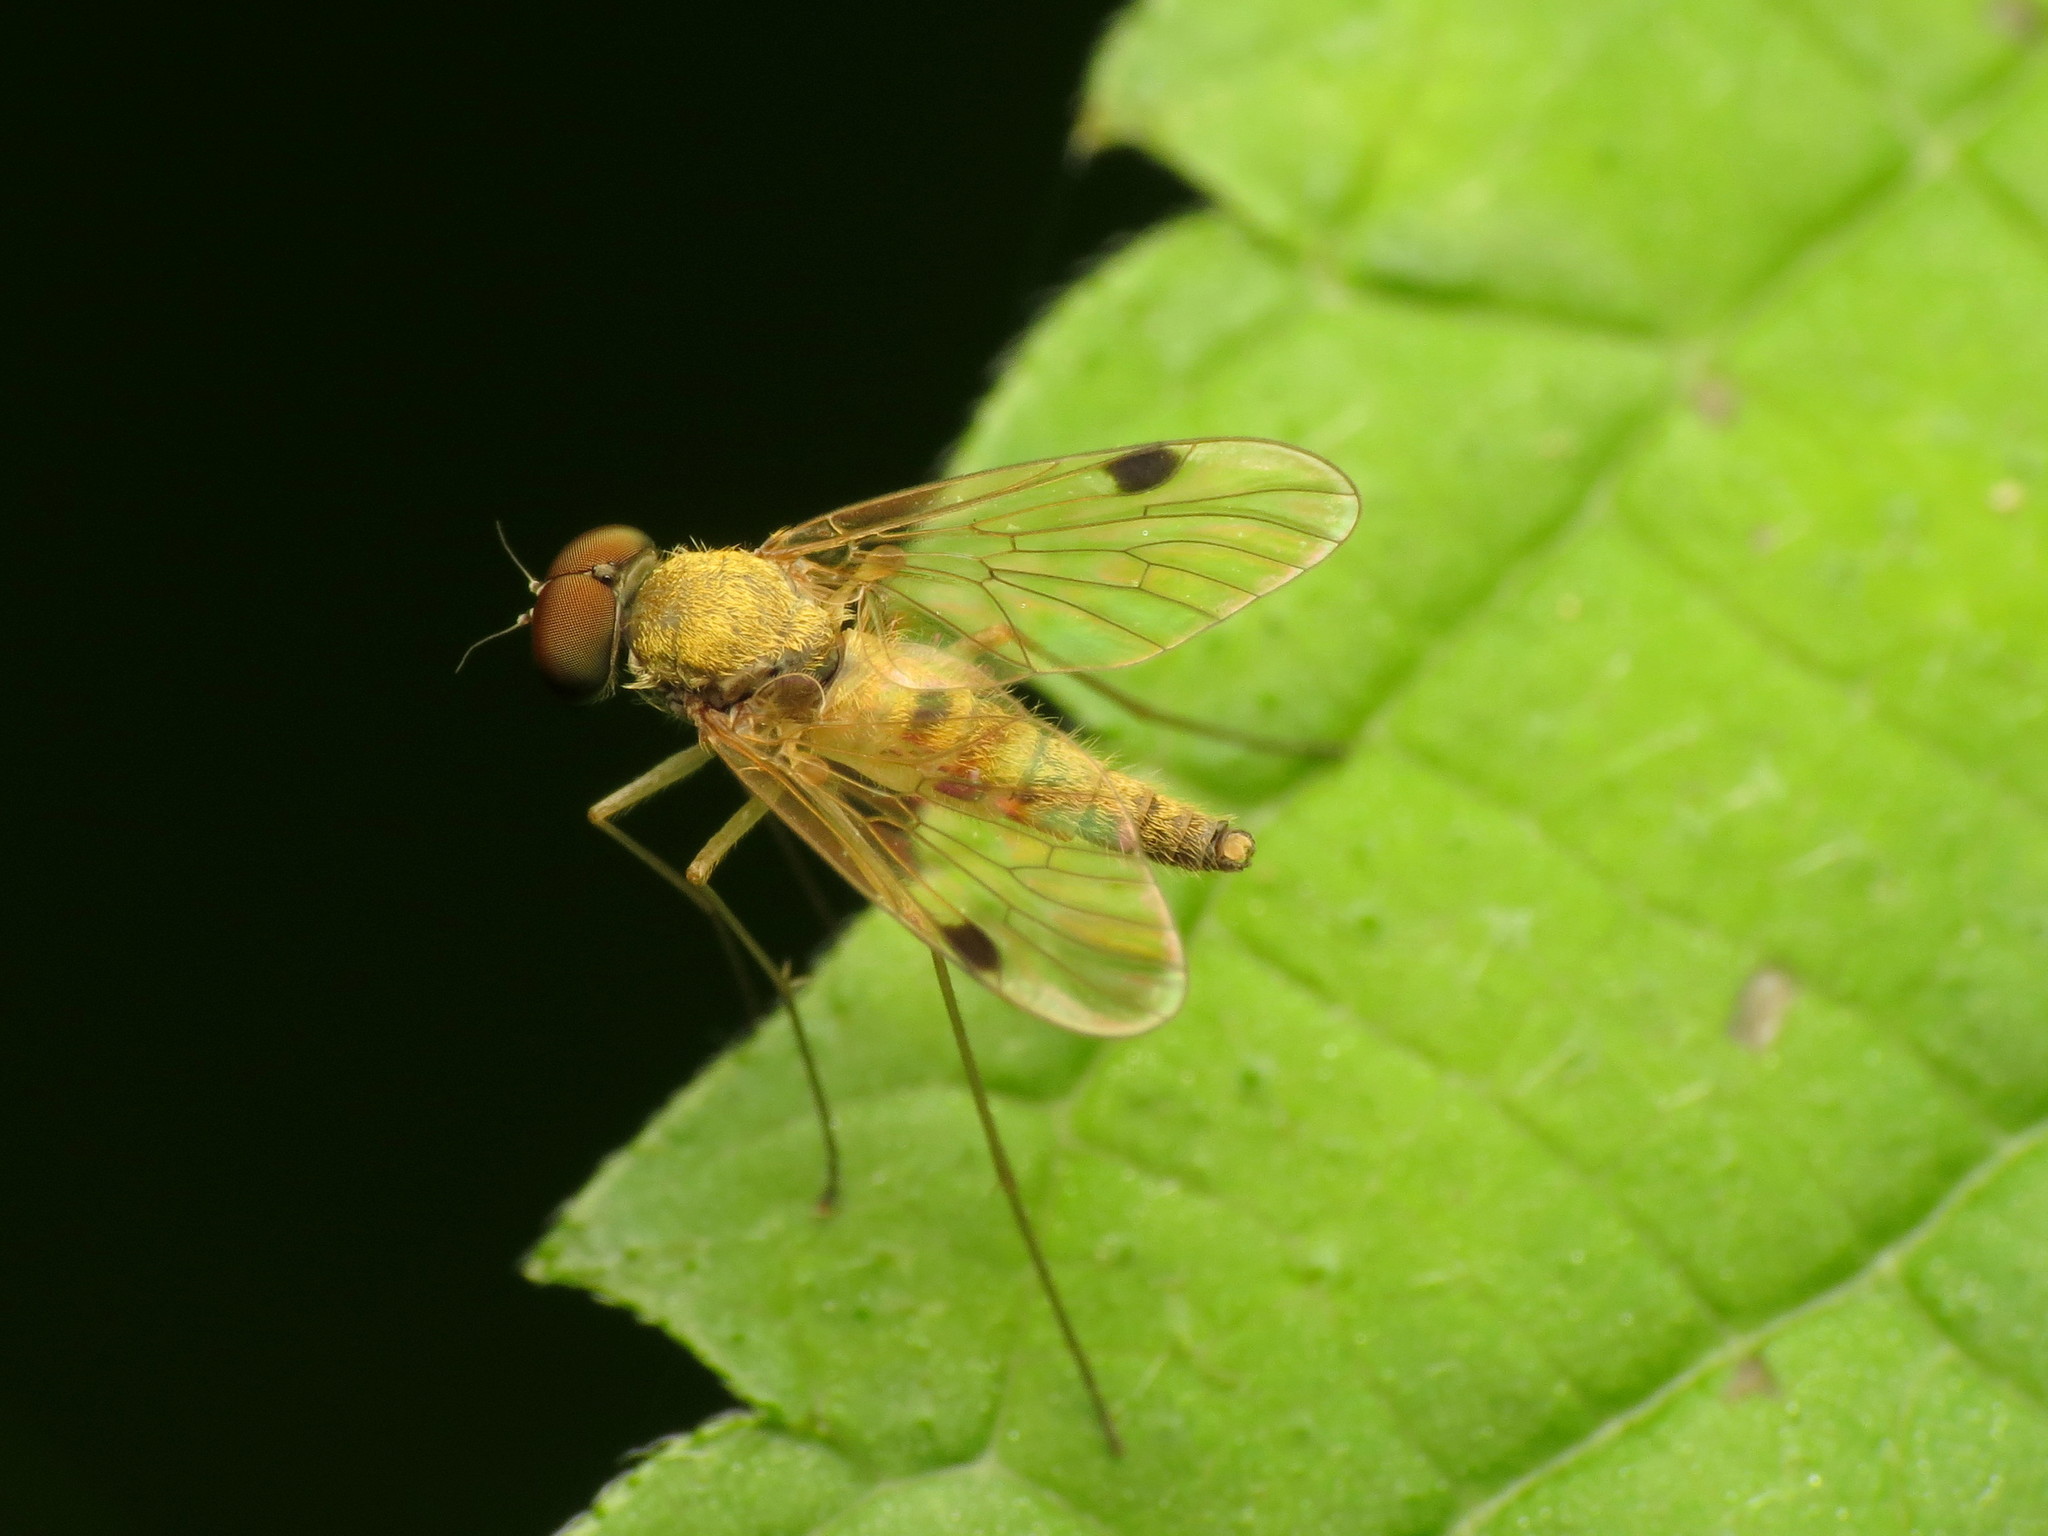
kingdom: Animalia
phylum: Arthropoda
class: Insecta
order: Diptera
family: Rhagionidae
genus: Chrysopilus
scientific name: Chrysopilus modestus
